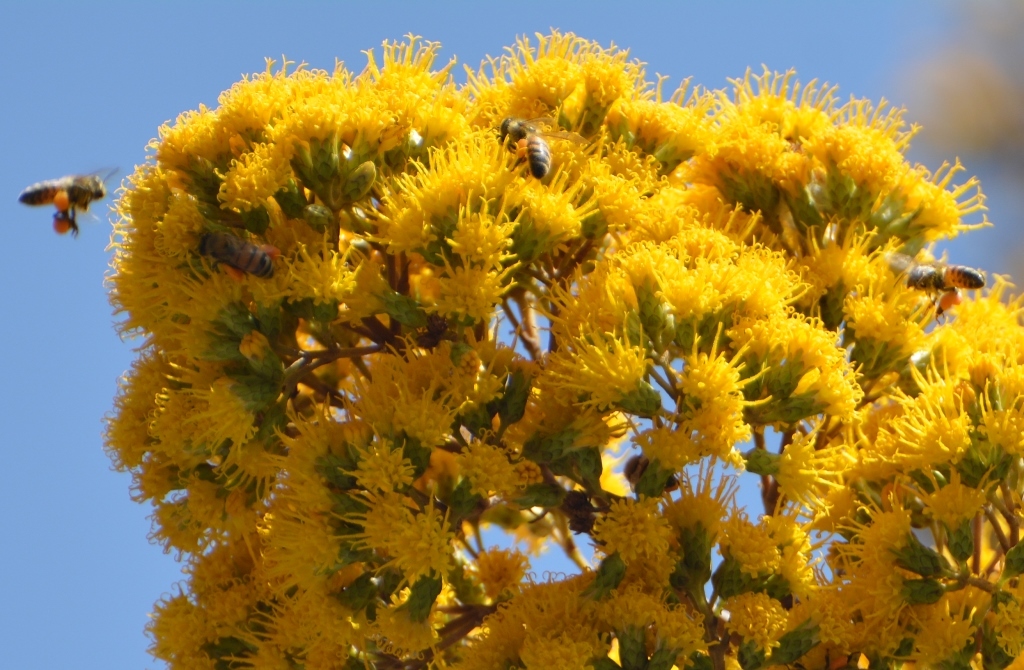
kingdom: Animalia
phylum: Arthropoda
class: Insecta
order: Hymenoptera
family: Apidae
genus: Apis
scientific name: Apis mellifera
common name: Honey bee
